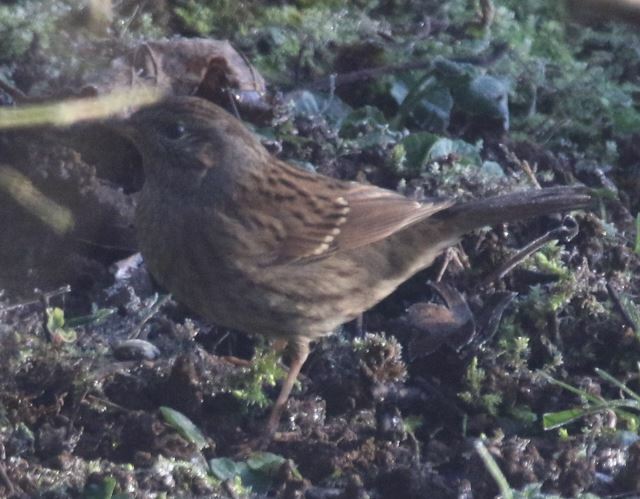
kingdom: Animalia
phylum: Chordata
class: Aves
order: Passeriformes
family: Prunellidae
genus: Prunella
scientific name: Prunella modularis
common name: Dunnock
